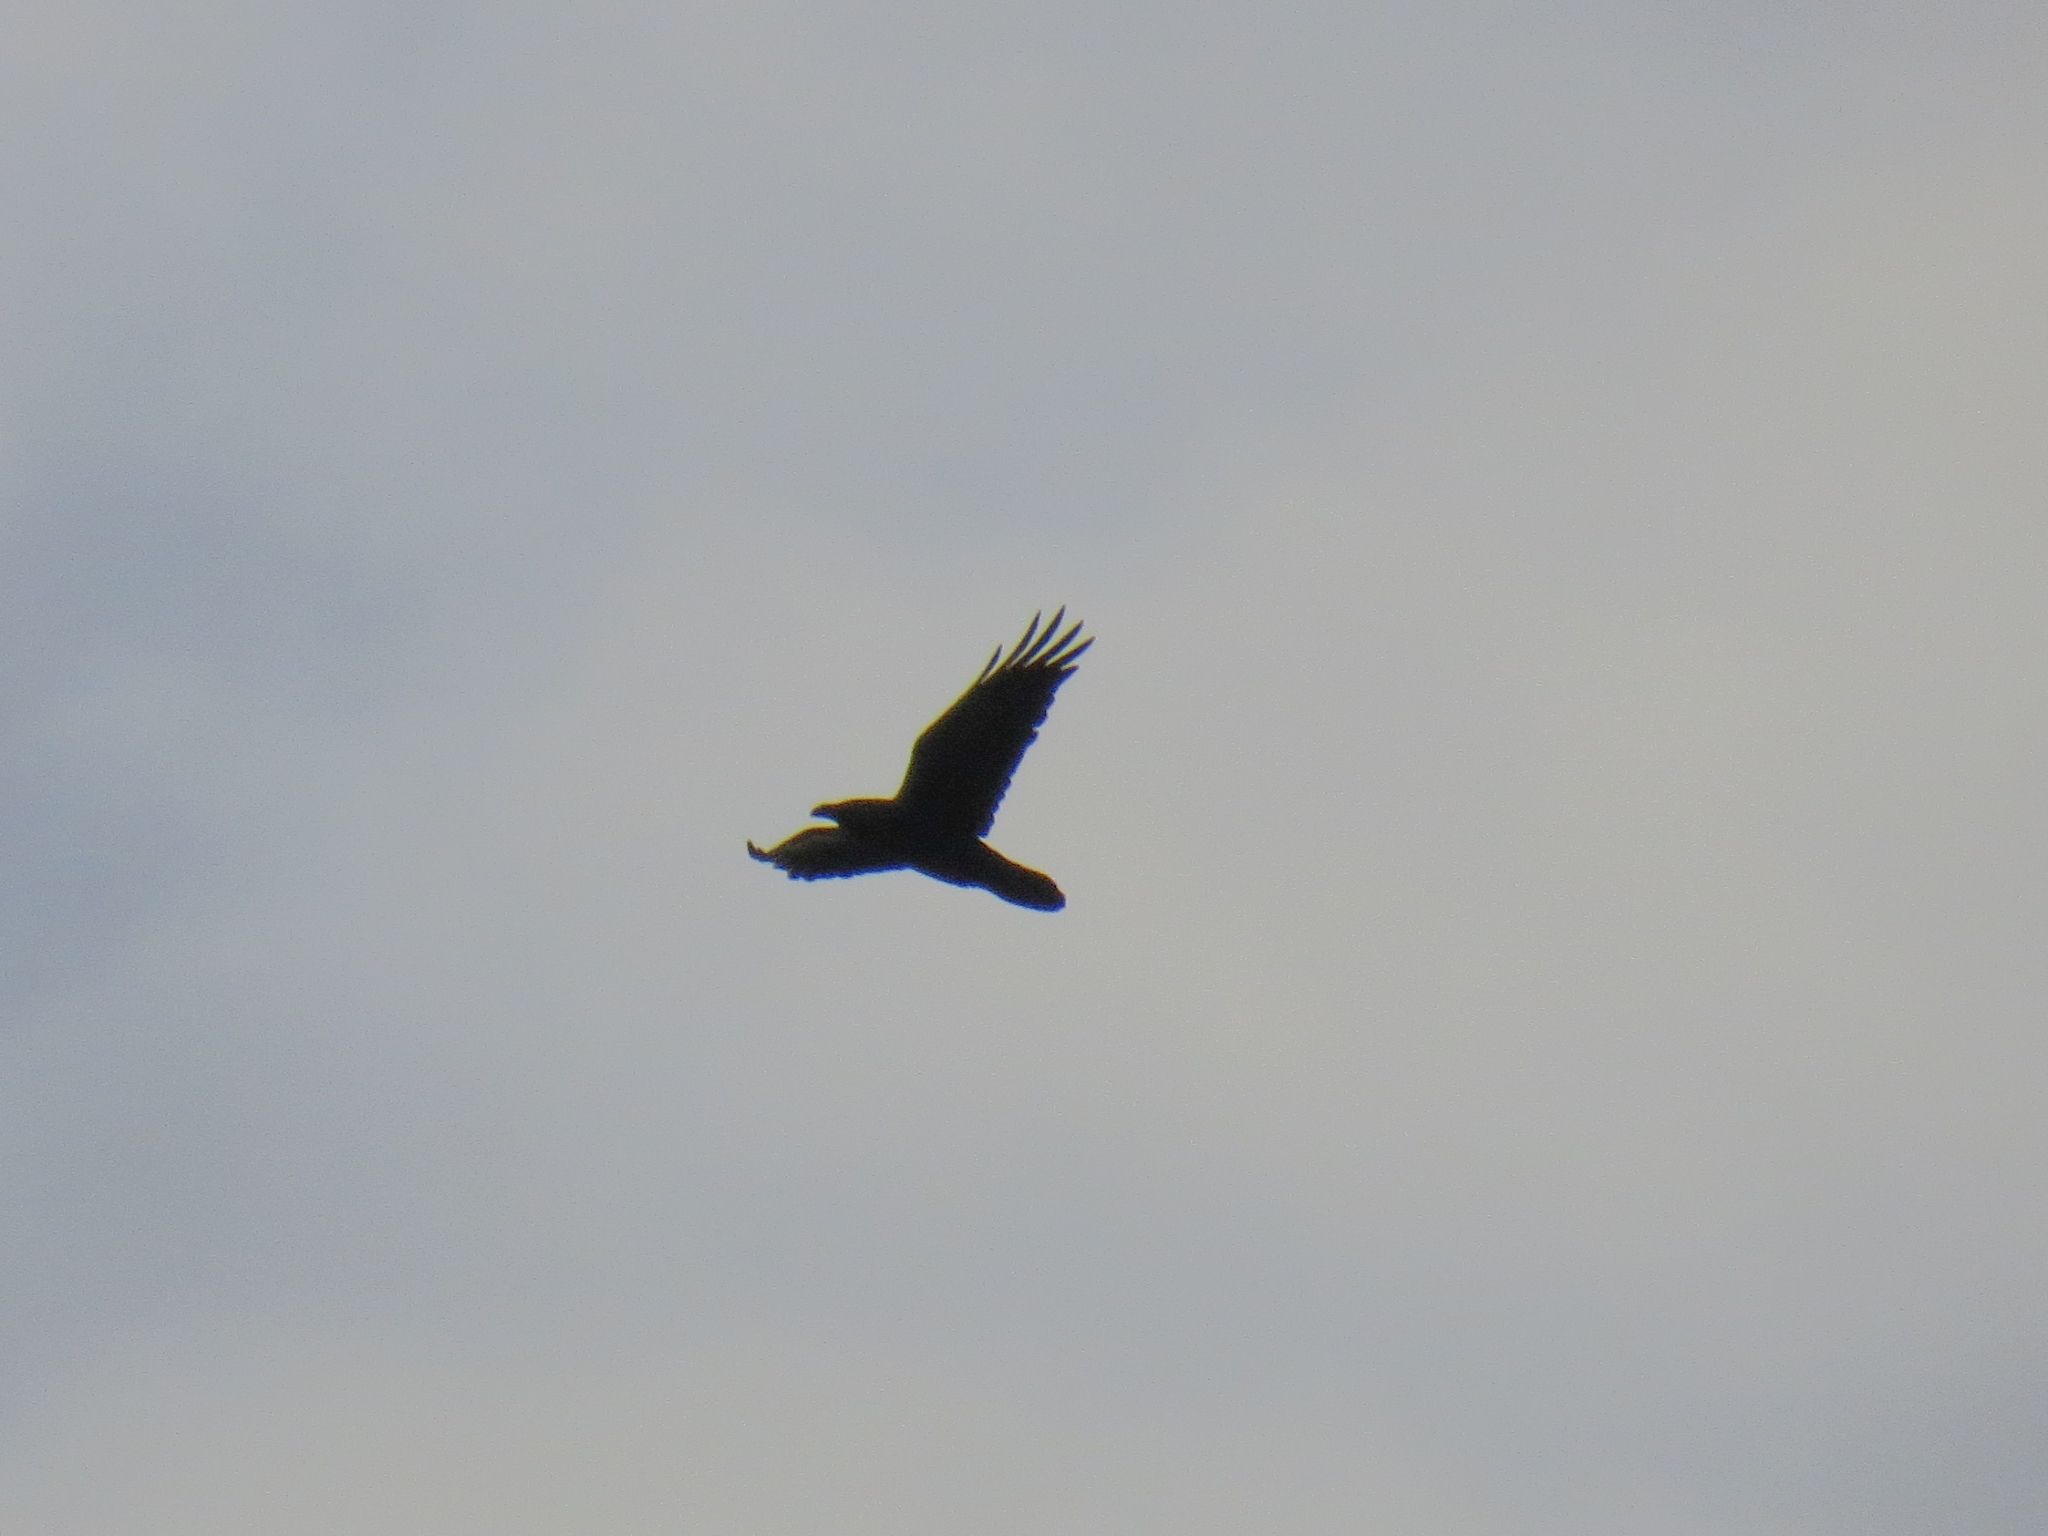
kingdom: Animalia
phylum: Chordata
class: Aves
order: Passeriformes
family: Corvidae
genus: Corvus
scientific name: Corvus corax
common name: Common raven
